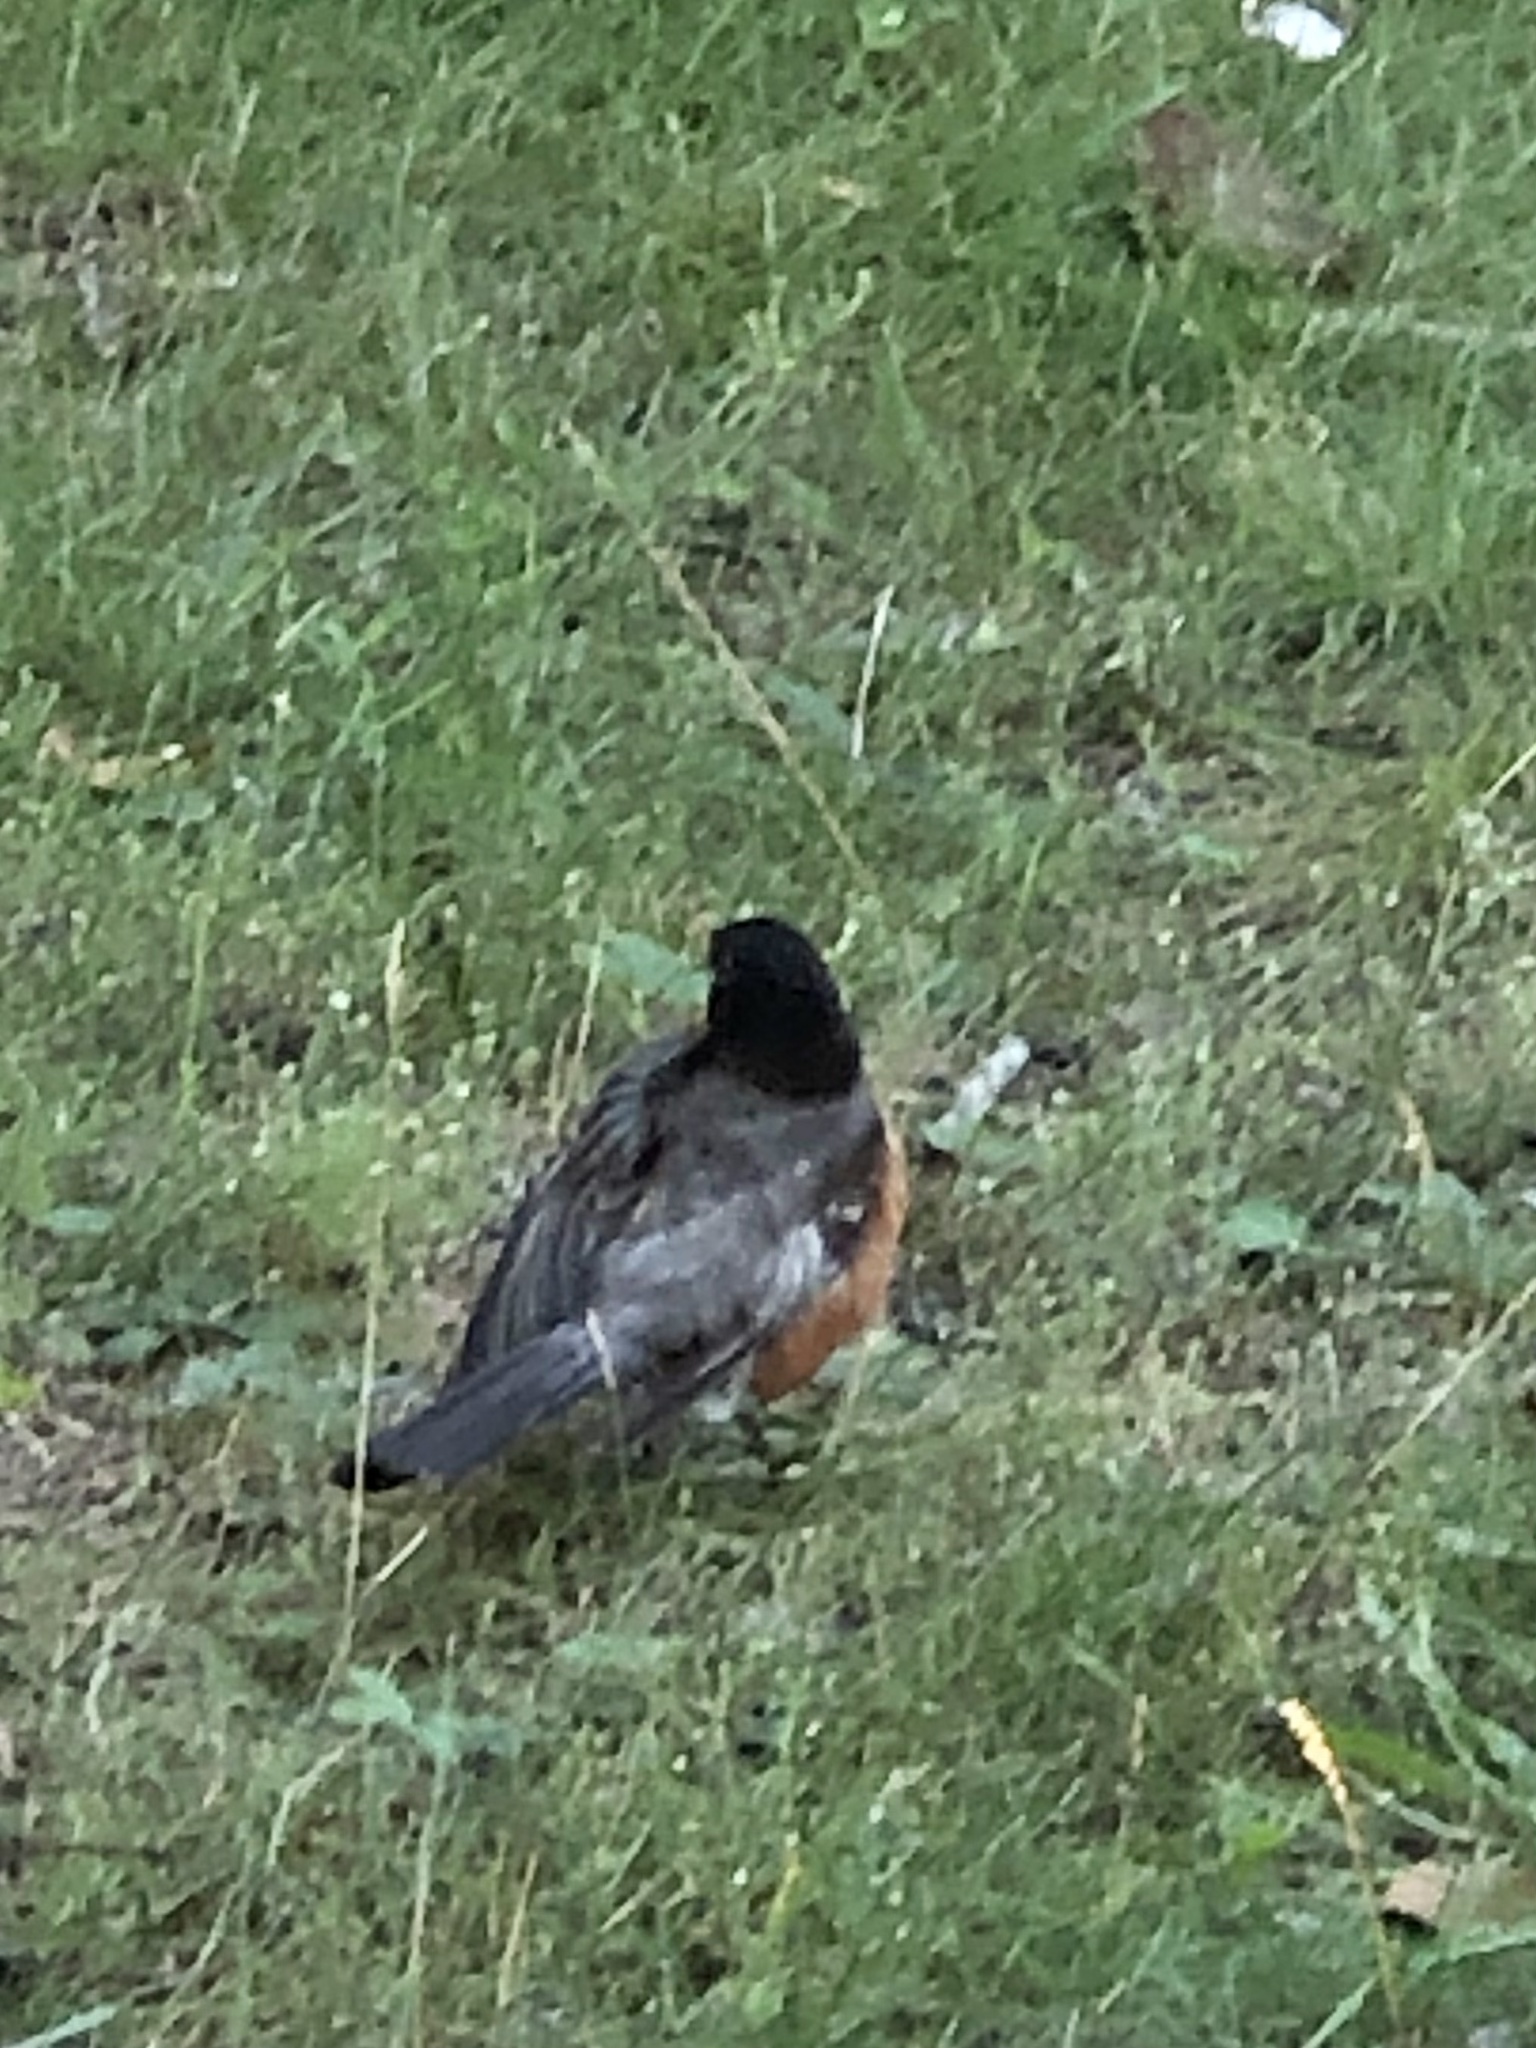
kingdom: Animalia
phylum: Chordata
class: Aves
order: Passeriformes
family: Turdidae
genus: Turdus
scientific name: Turdus migratorius
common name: American robin
